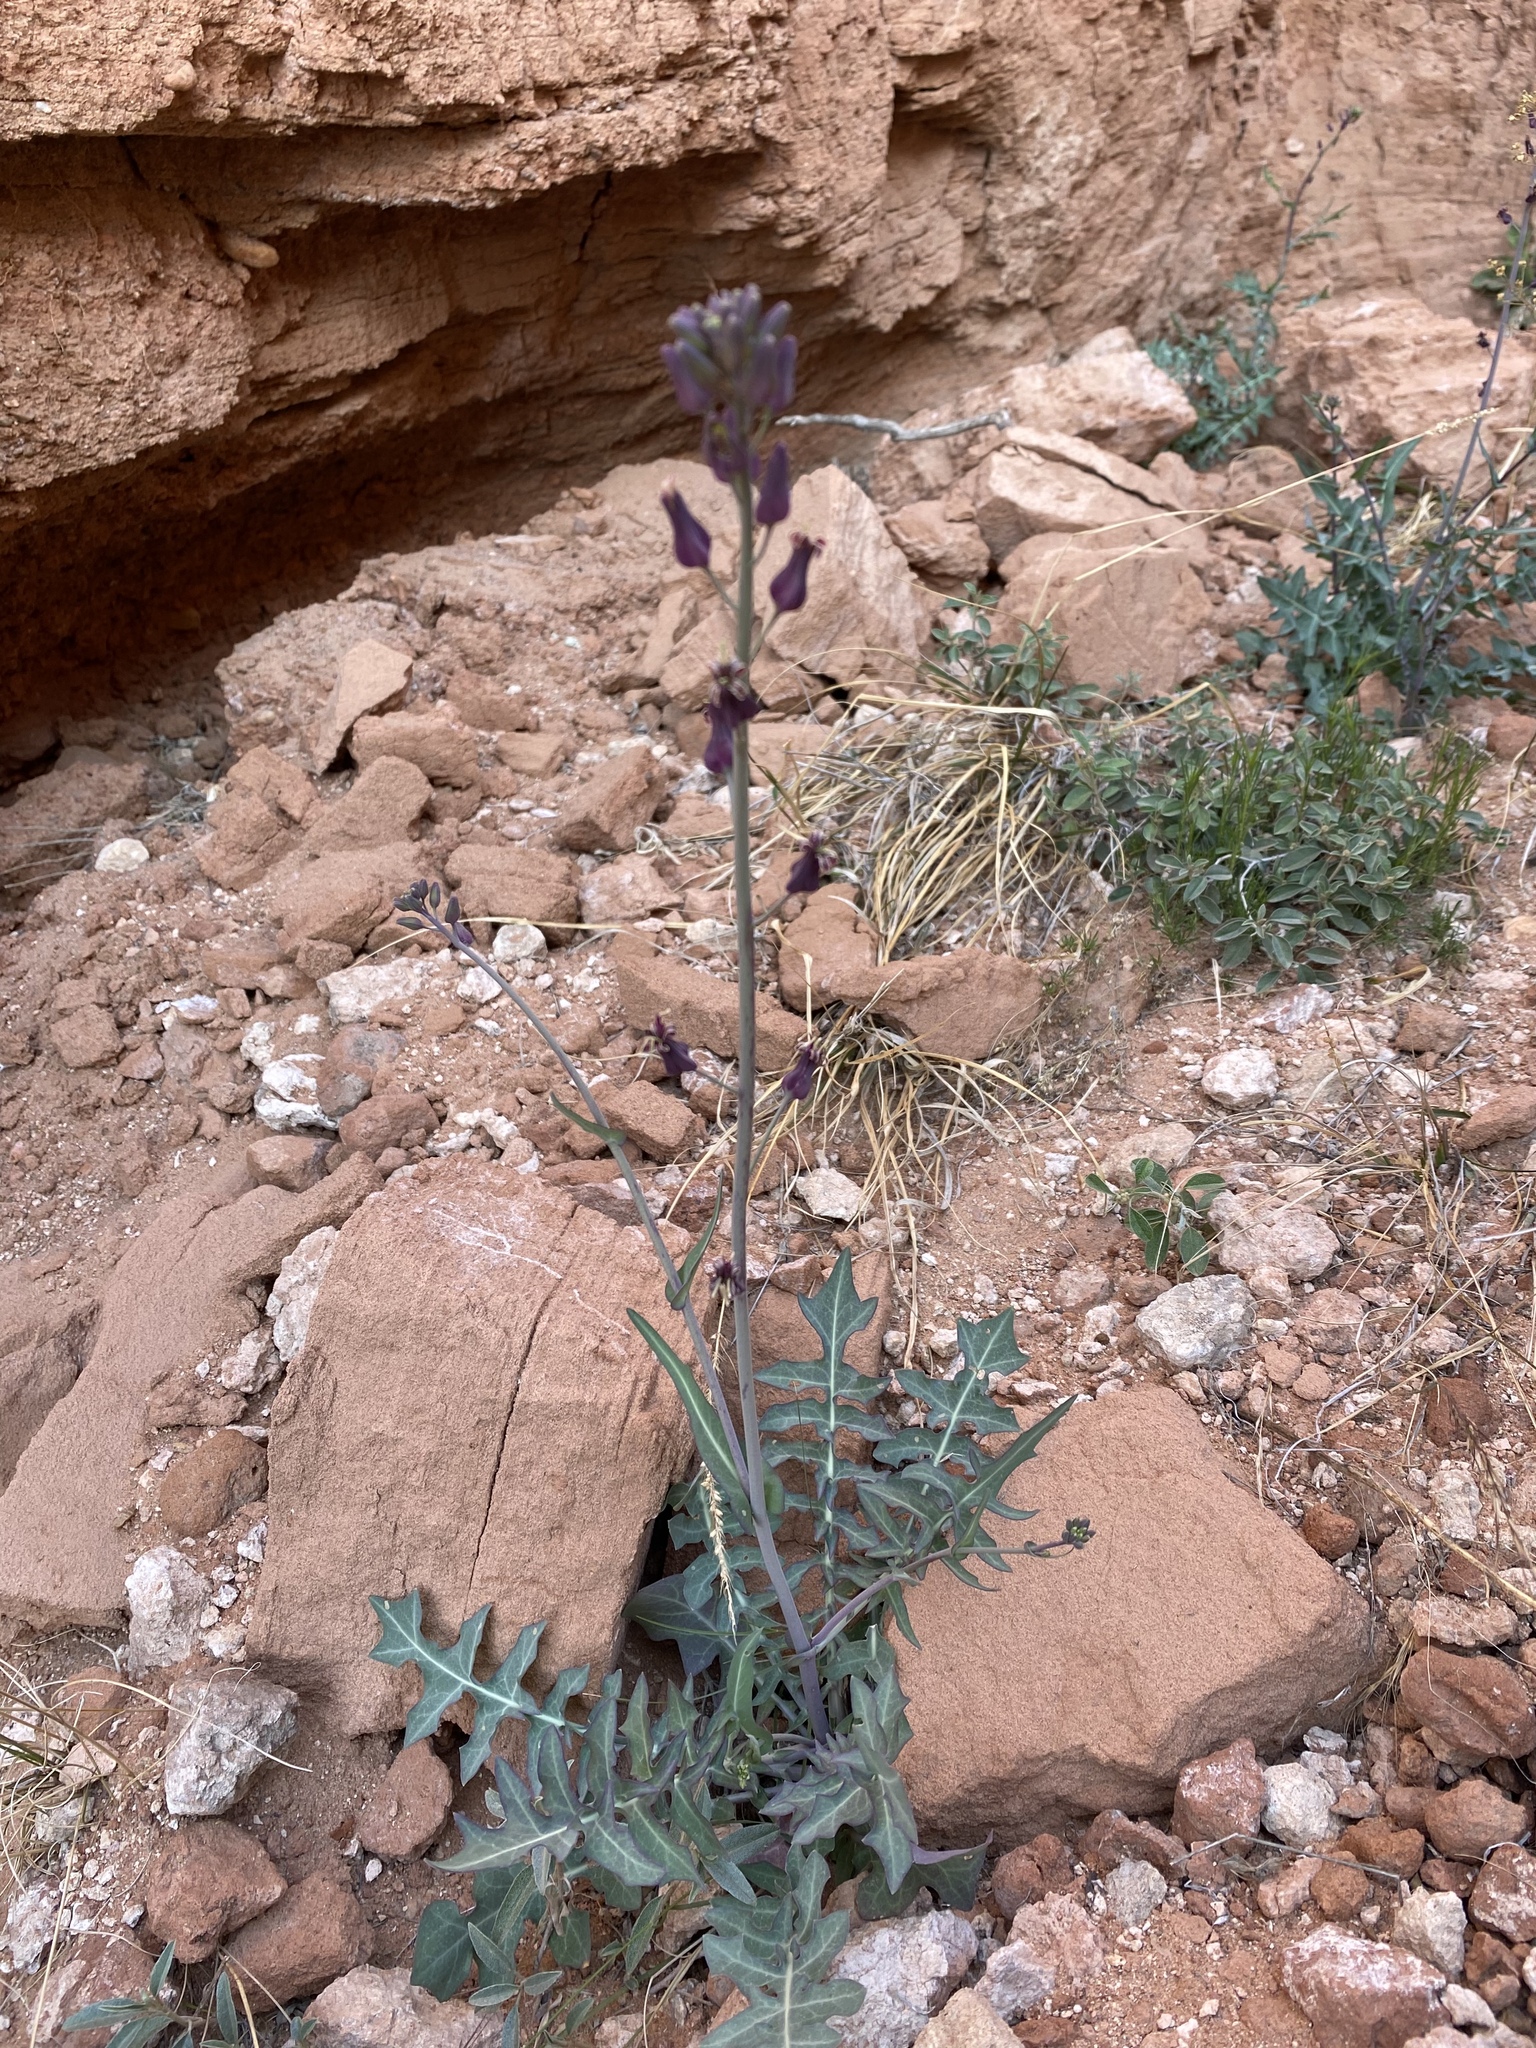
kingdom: Plantae
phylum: Tracheophyta
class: Magnoliopsida
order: Brassicales
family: Brassicaceae
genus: Streptanthus
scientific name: Streptanthus carinatus
